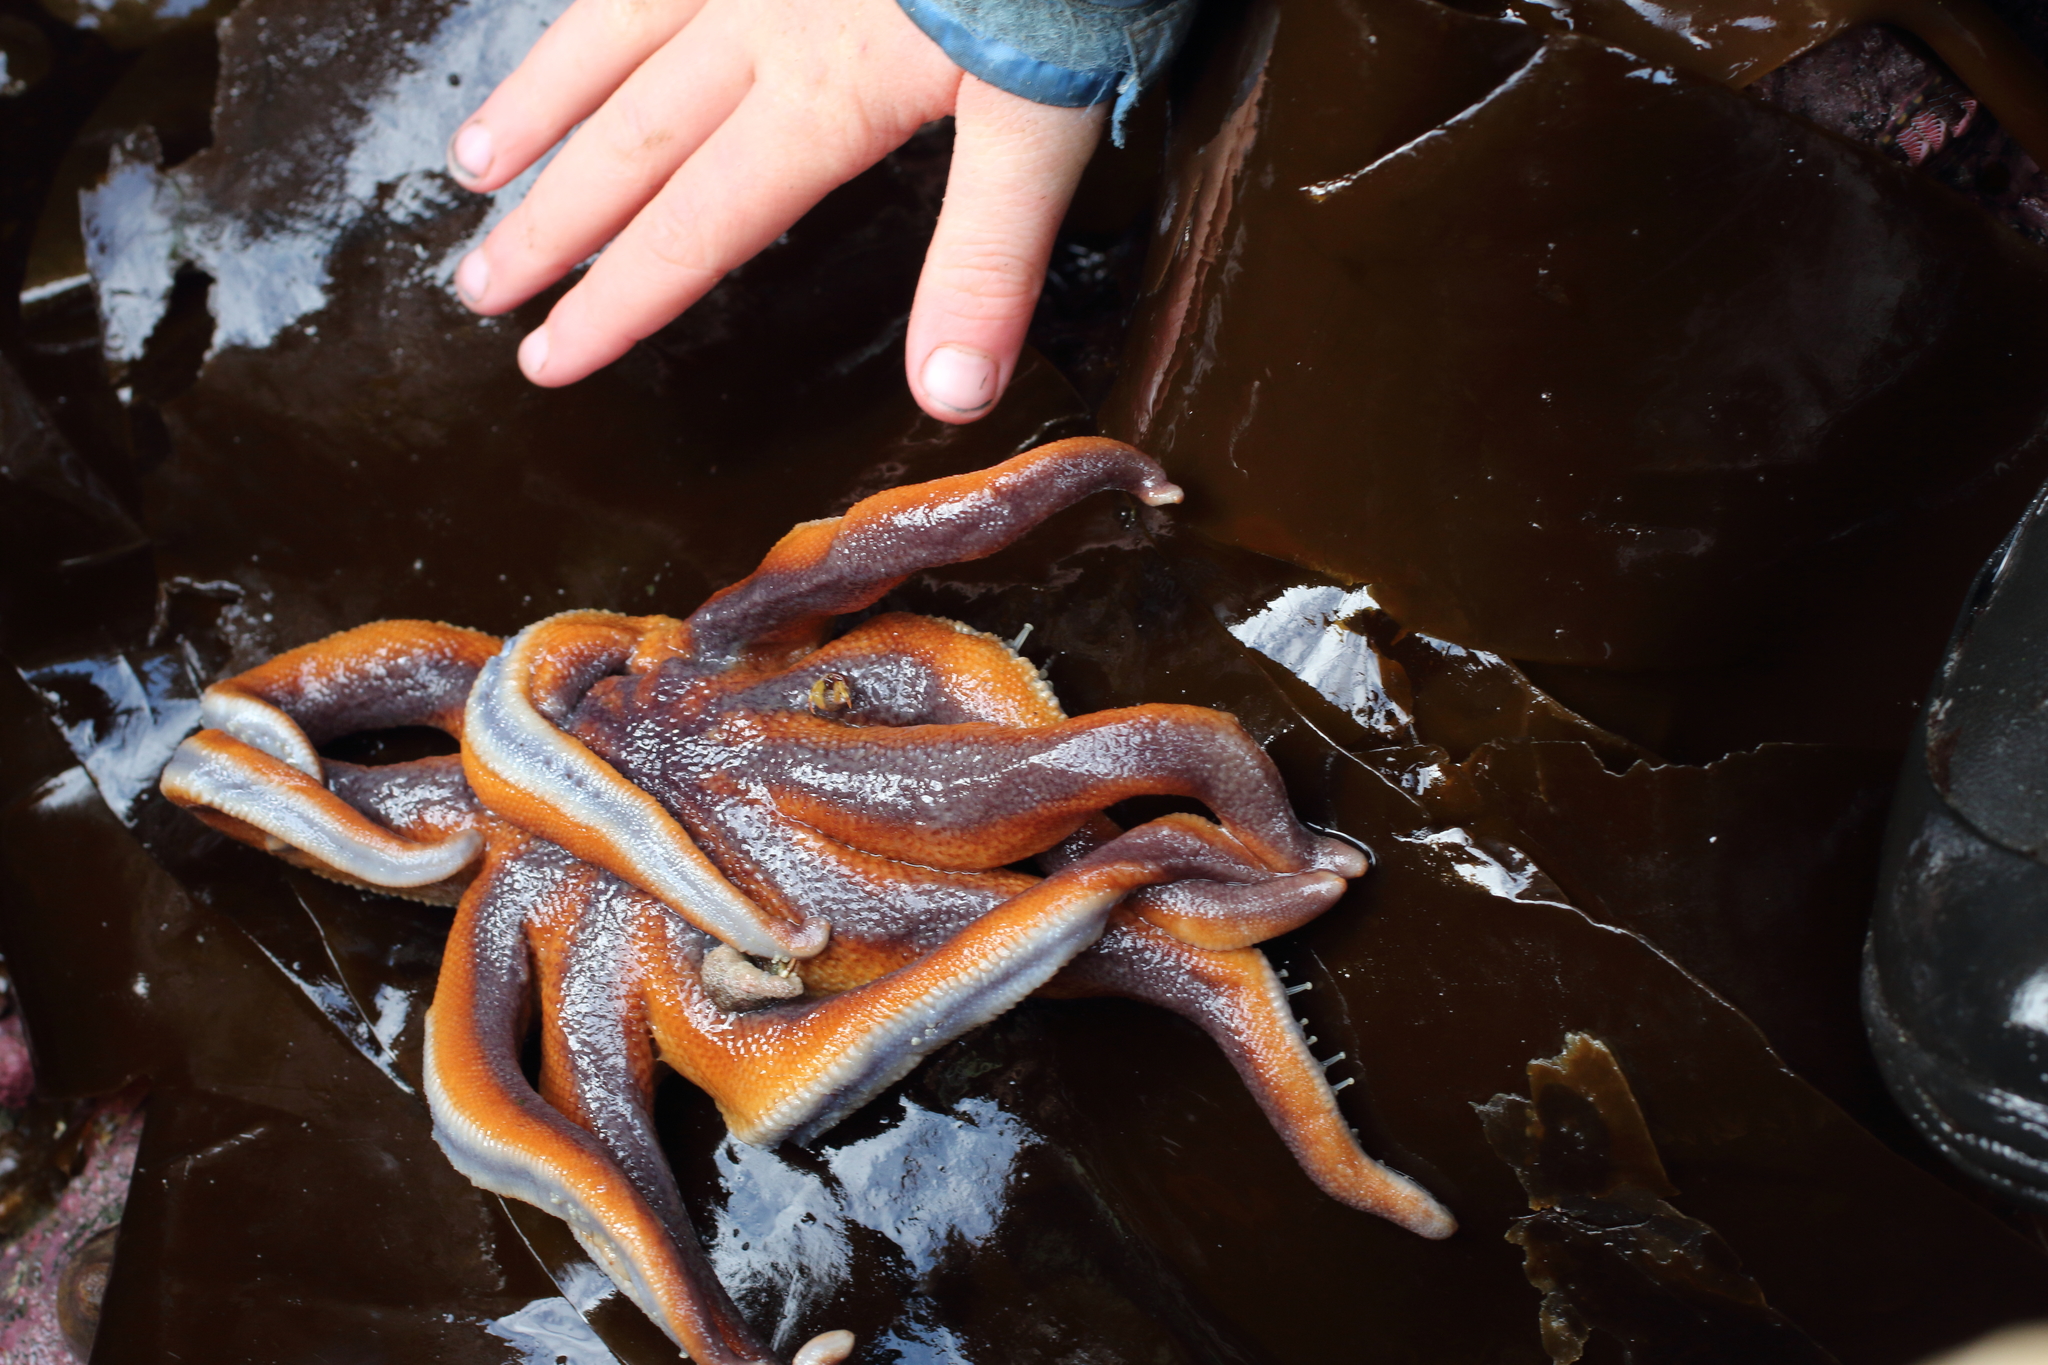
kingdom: Animalia
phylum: Echinodermata
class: Asteroidea
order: Valvatida
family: Solasteridae
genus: Solaster
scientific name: Solaster stimpsoni
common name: Orange sun star
